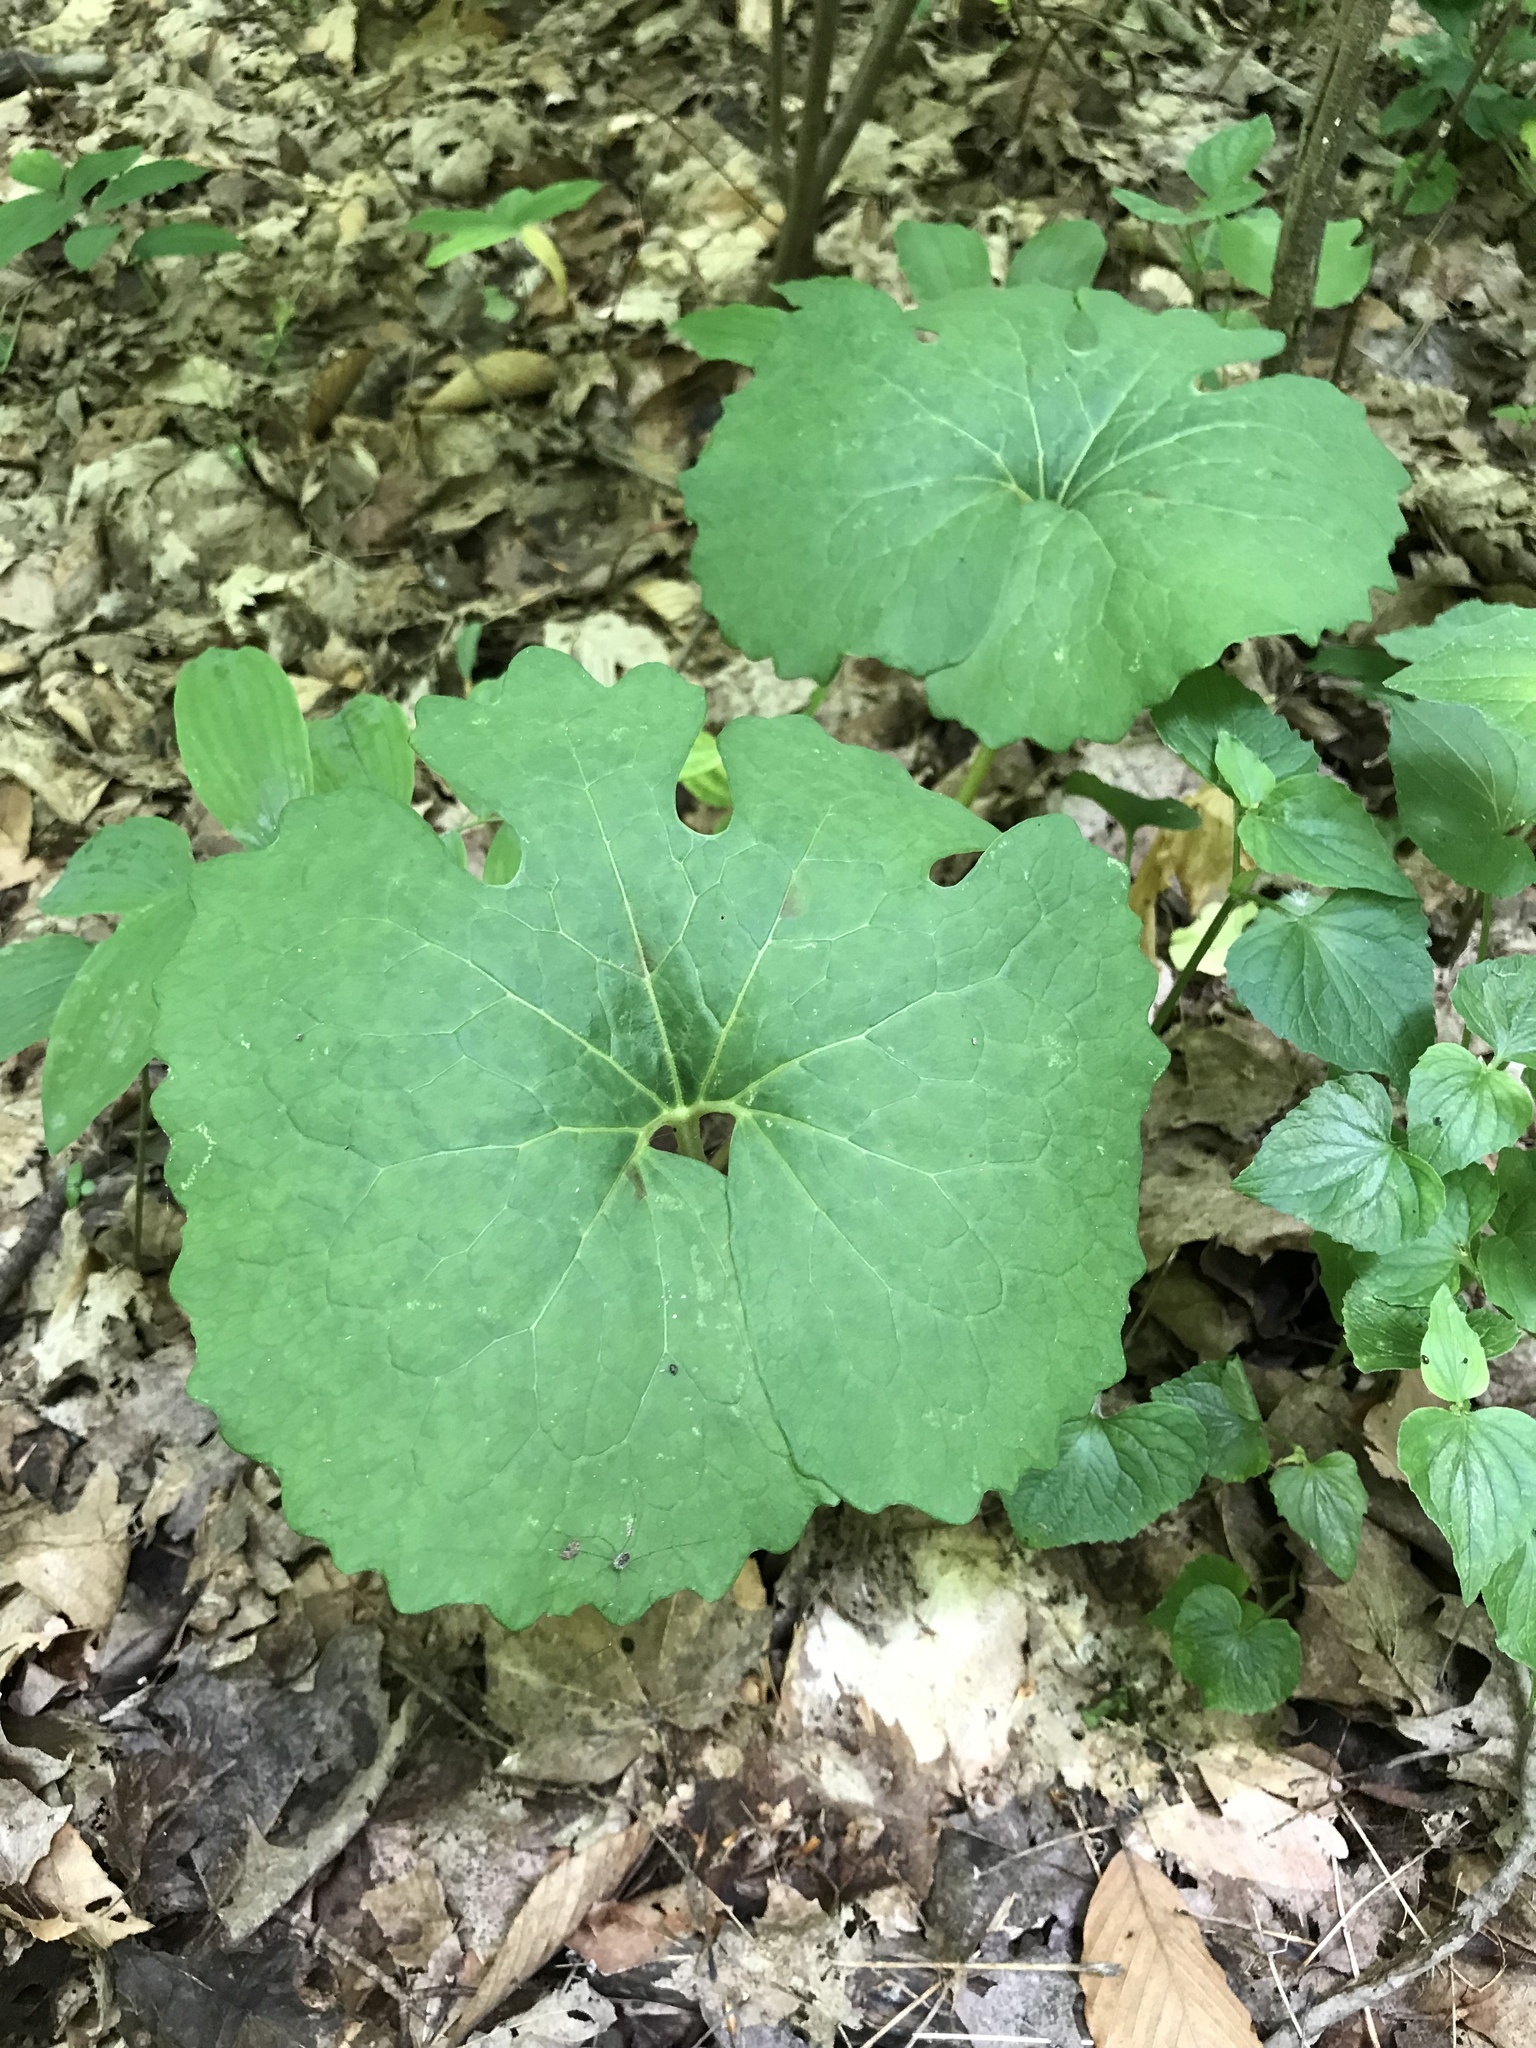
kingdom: Plantae
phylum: Tracheophyta
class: Magnoliopsida
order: Ranunculales
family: Papaveraceae
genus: Sanguinaria
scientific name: Sanguinaria canadensis
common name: Bloodroot
